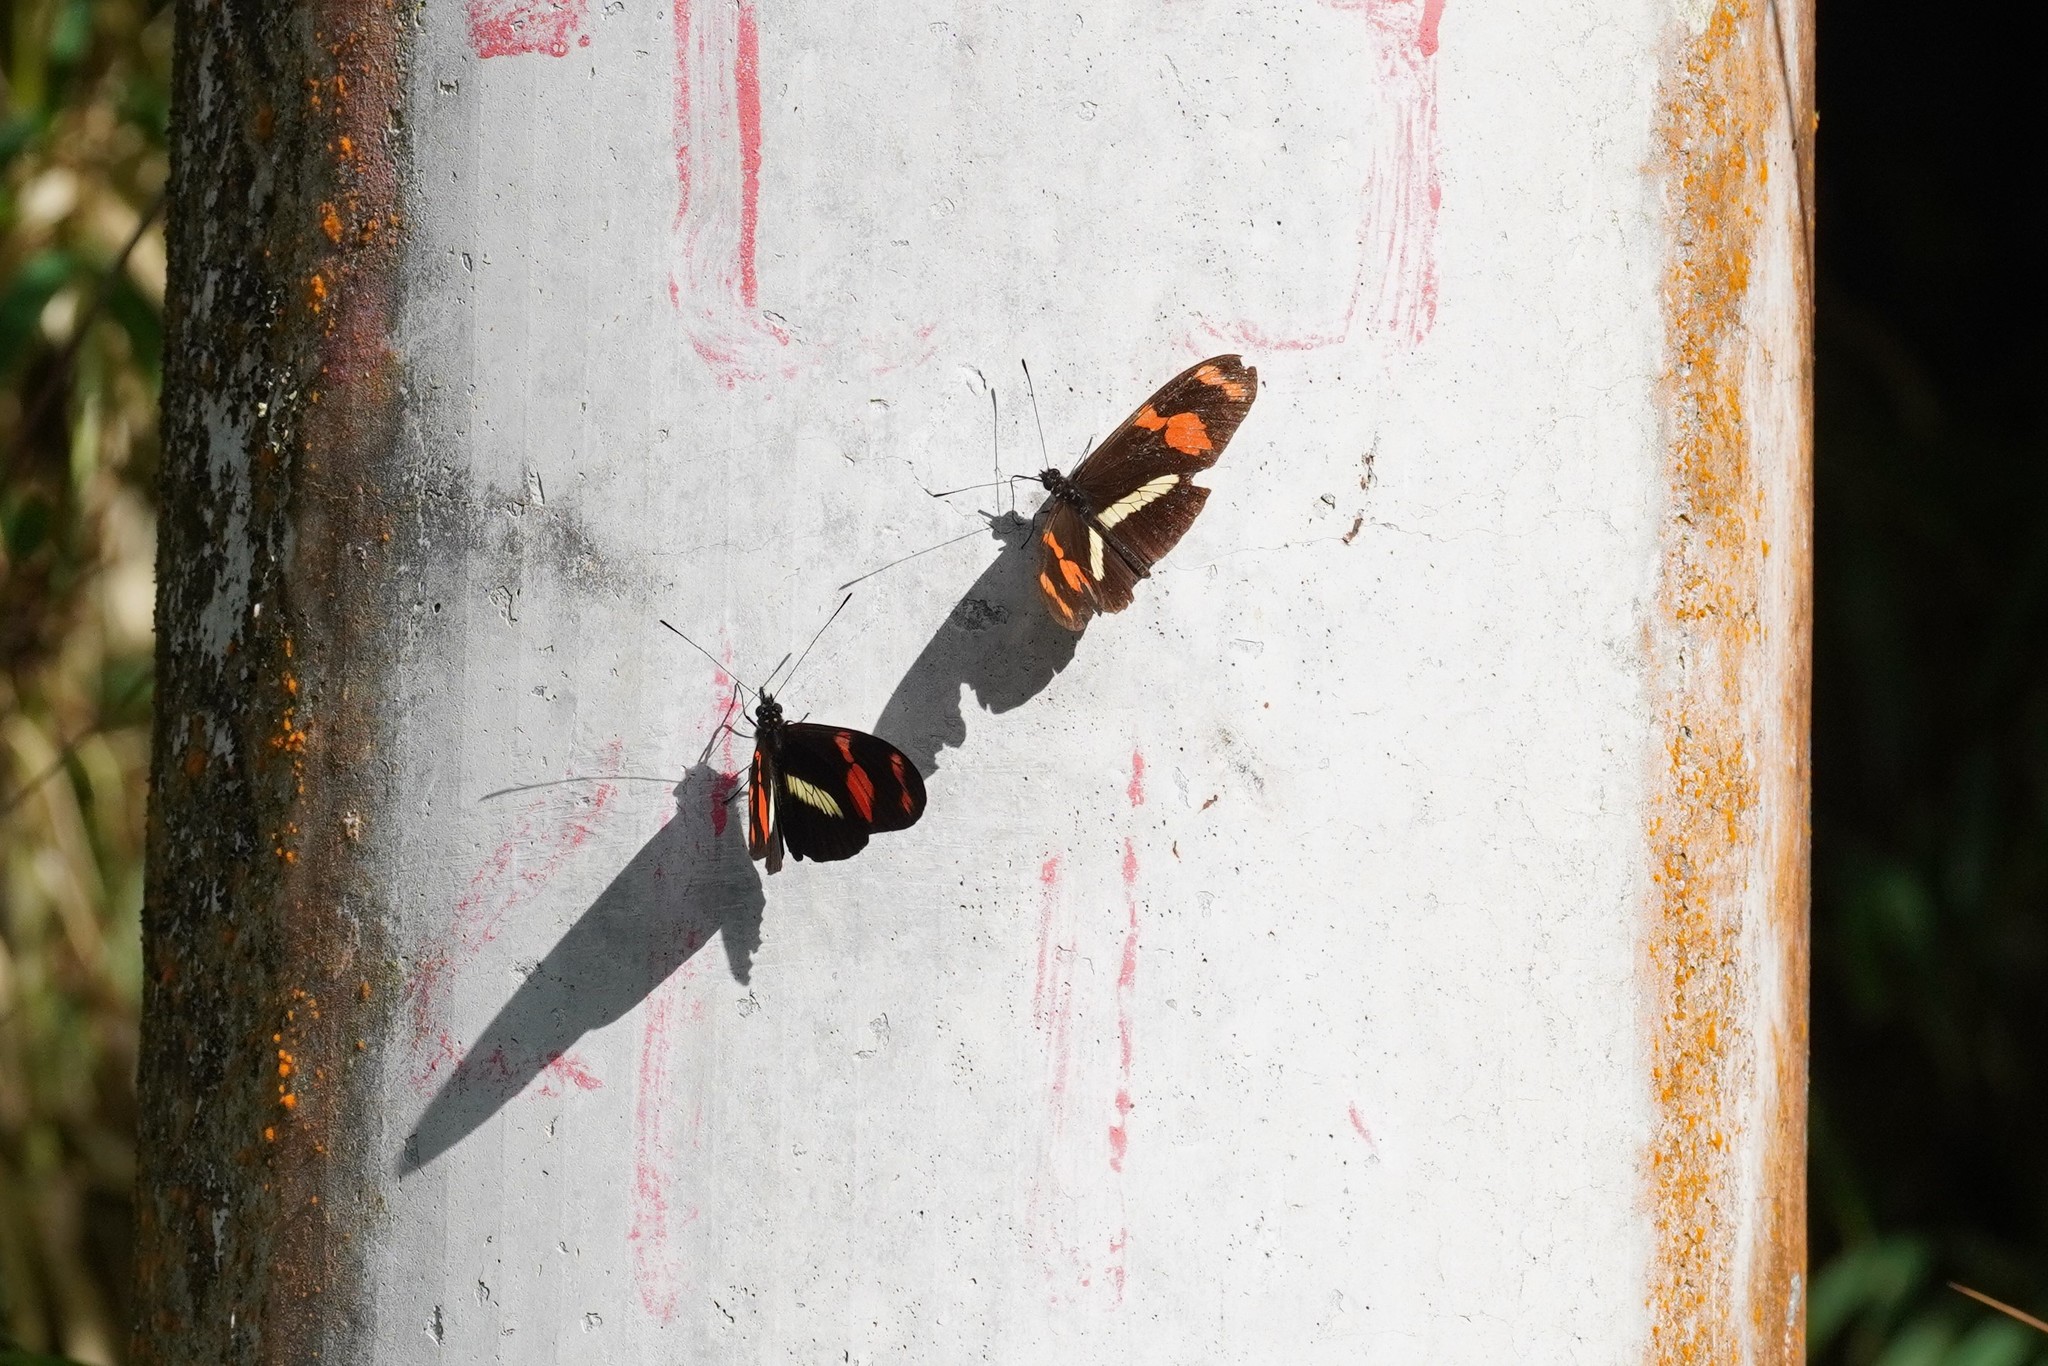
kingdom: Animalia
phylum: Arthropoda
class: Insecta
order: Lepidoptera
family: Nymphalidae
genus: Heliconius
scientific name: Heliconius telesiphe
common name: Telesiphe longwing
